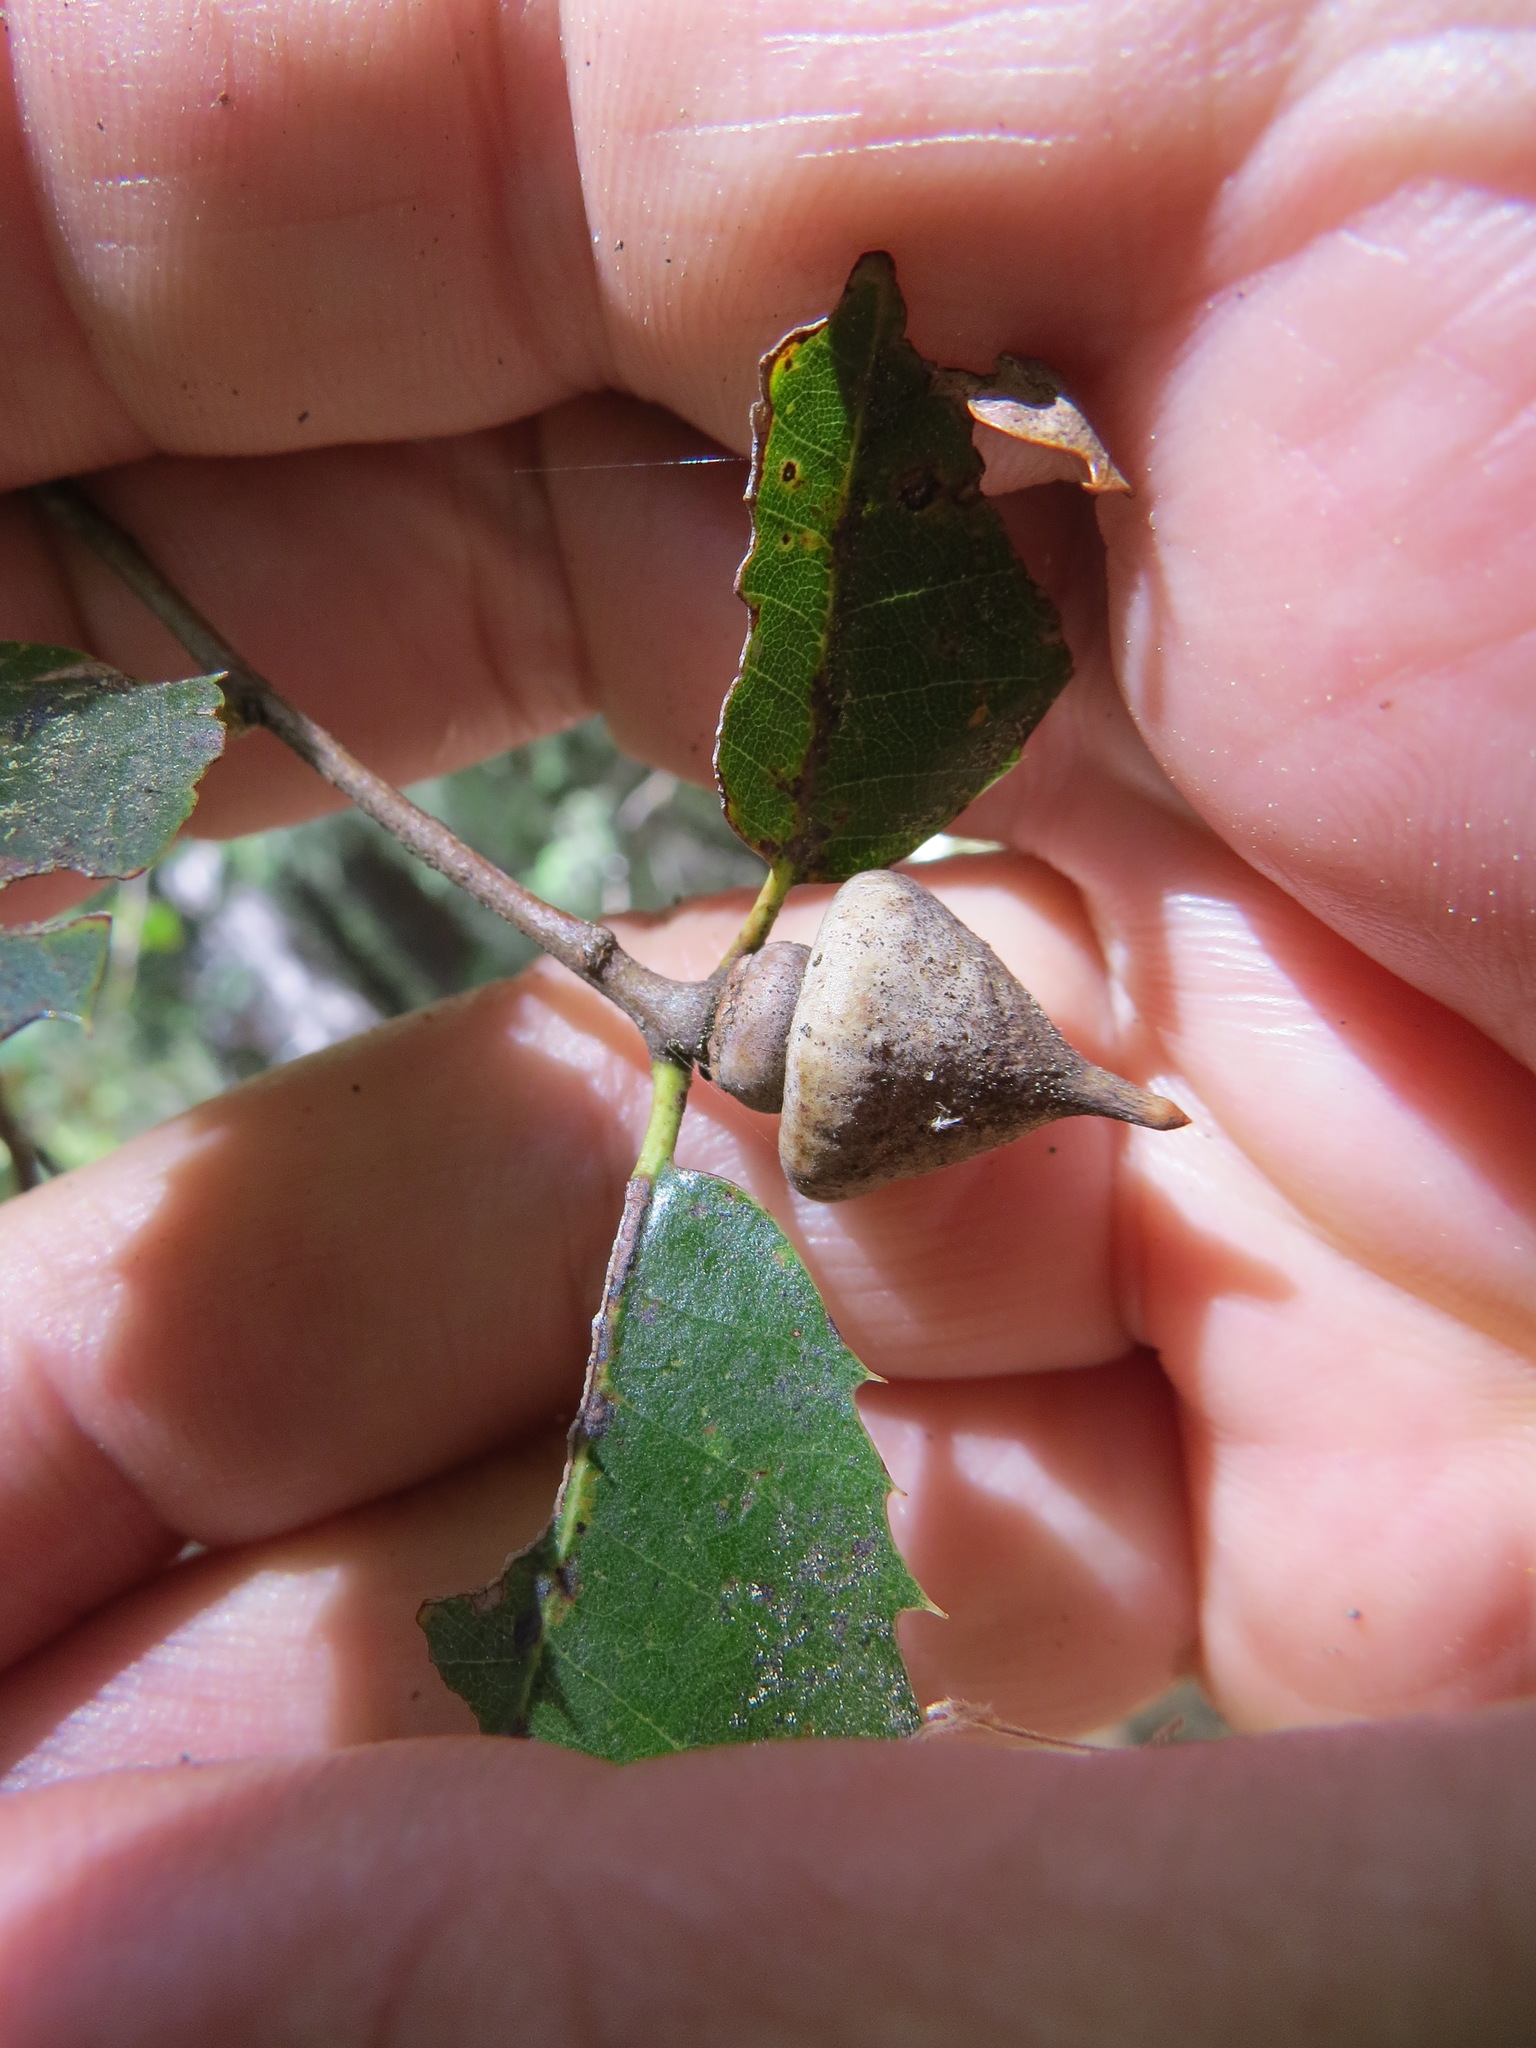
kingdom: Animalia
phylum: Arthropoda
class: Insecta
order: Hymenoptera
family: Cynipidae
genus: Heteroecus
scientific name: Heteroecus
